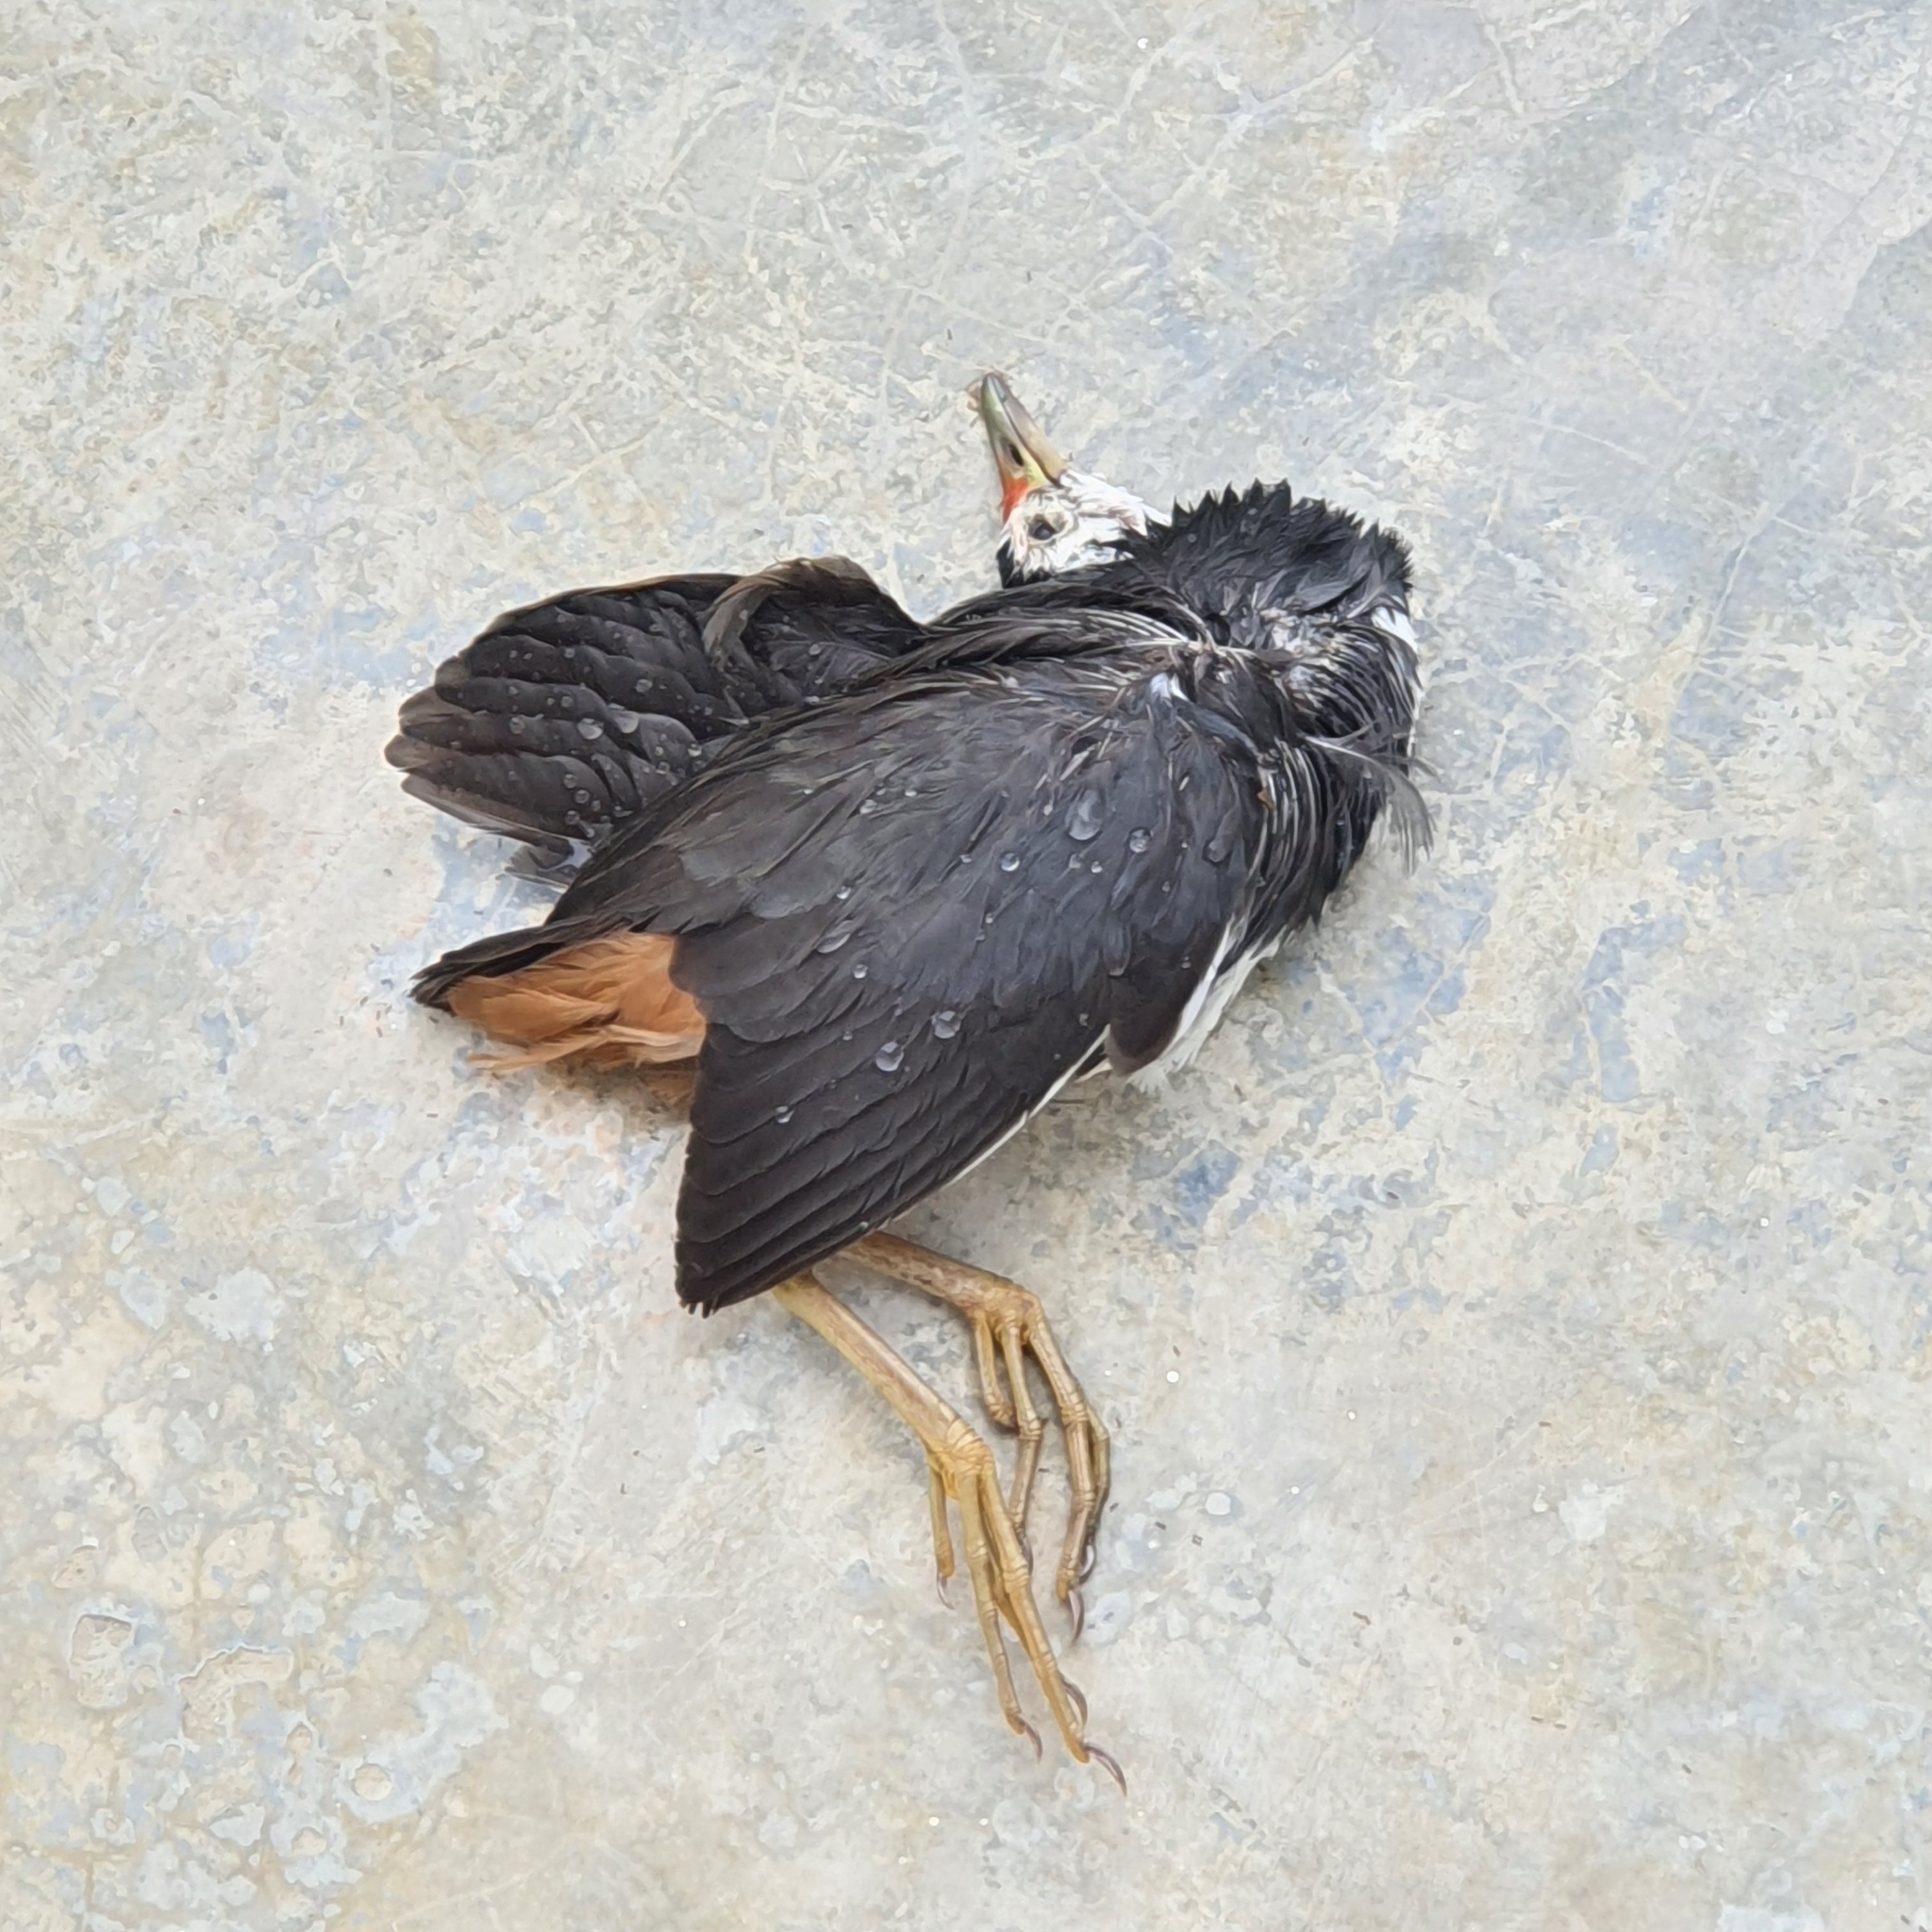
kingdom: Animalia
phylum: Chordata
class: Aves
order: Gruiformes
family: Rallidae
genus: Amaurornis
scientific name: Amaurornis phoenicurus
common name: White-breasted waterhen
